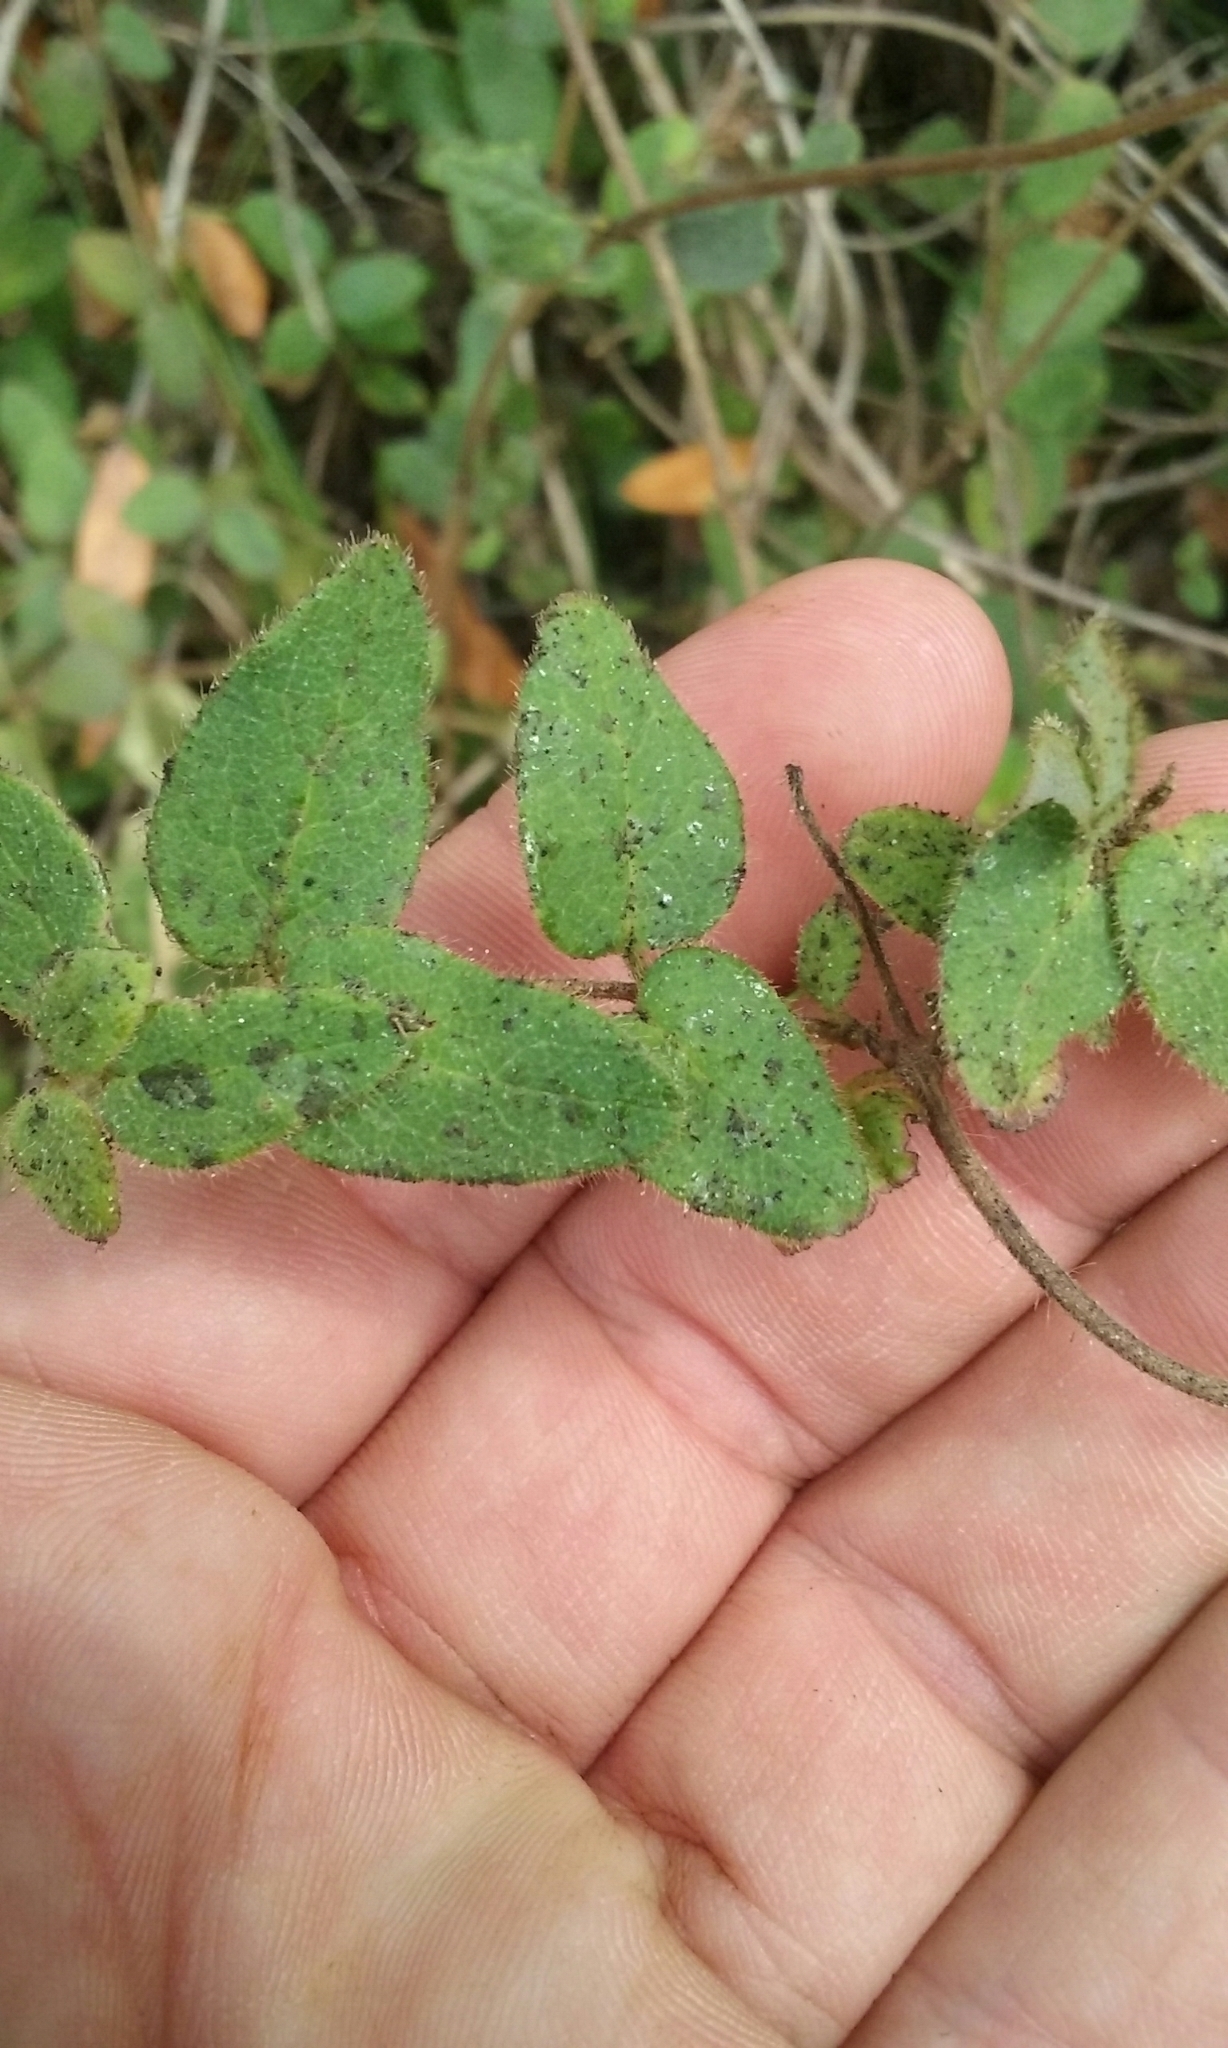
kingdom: Plantae
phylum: Tracheophyta
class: Magnoliopsida
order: Dipsacales
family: Caprifoliaceae
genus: Lonicera
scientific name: Lonicera hispidula
